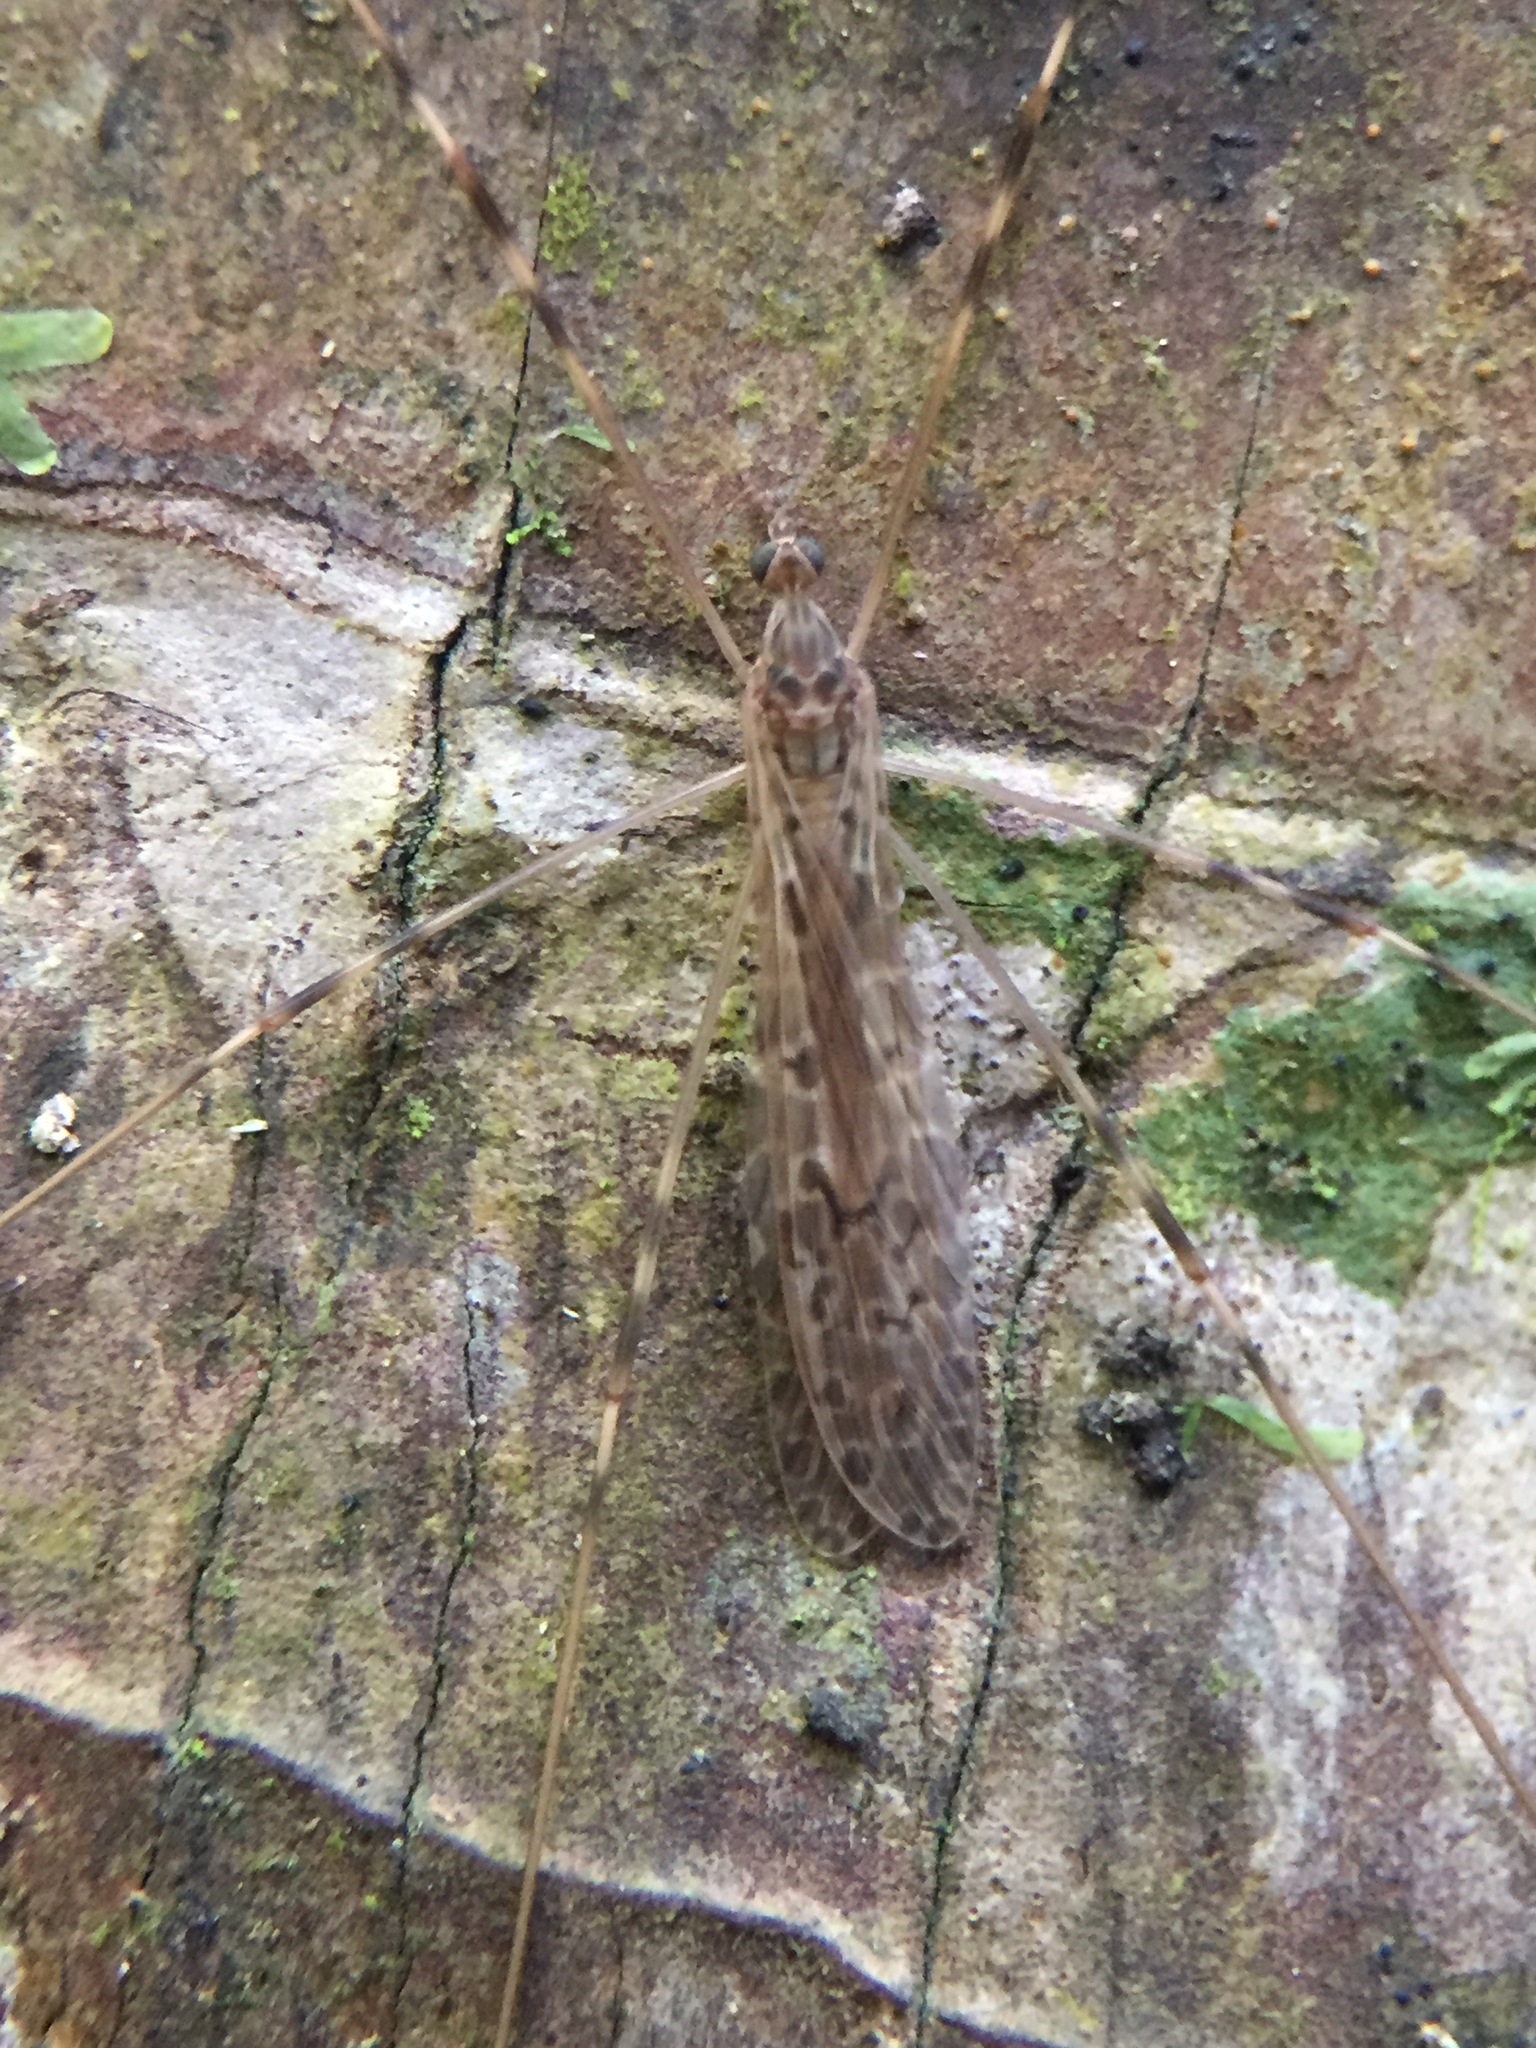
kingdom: Animalia
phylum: Arthropoda
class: Insecta
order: Diptera
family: Limoniidae
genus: Austrolimnophila
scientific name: Austrolimnophila crassipes
